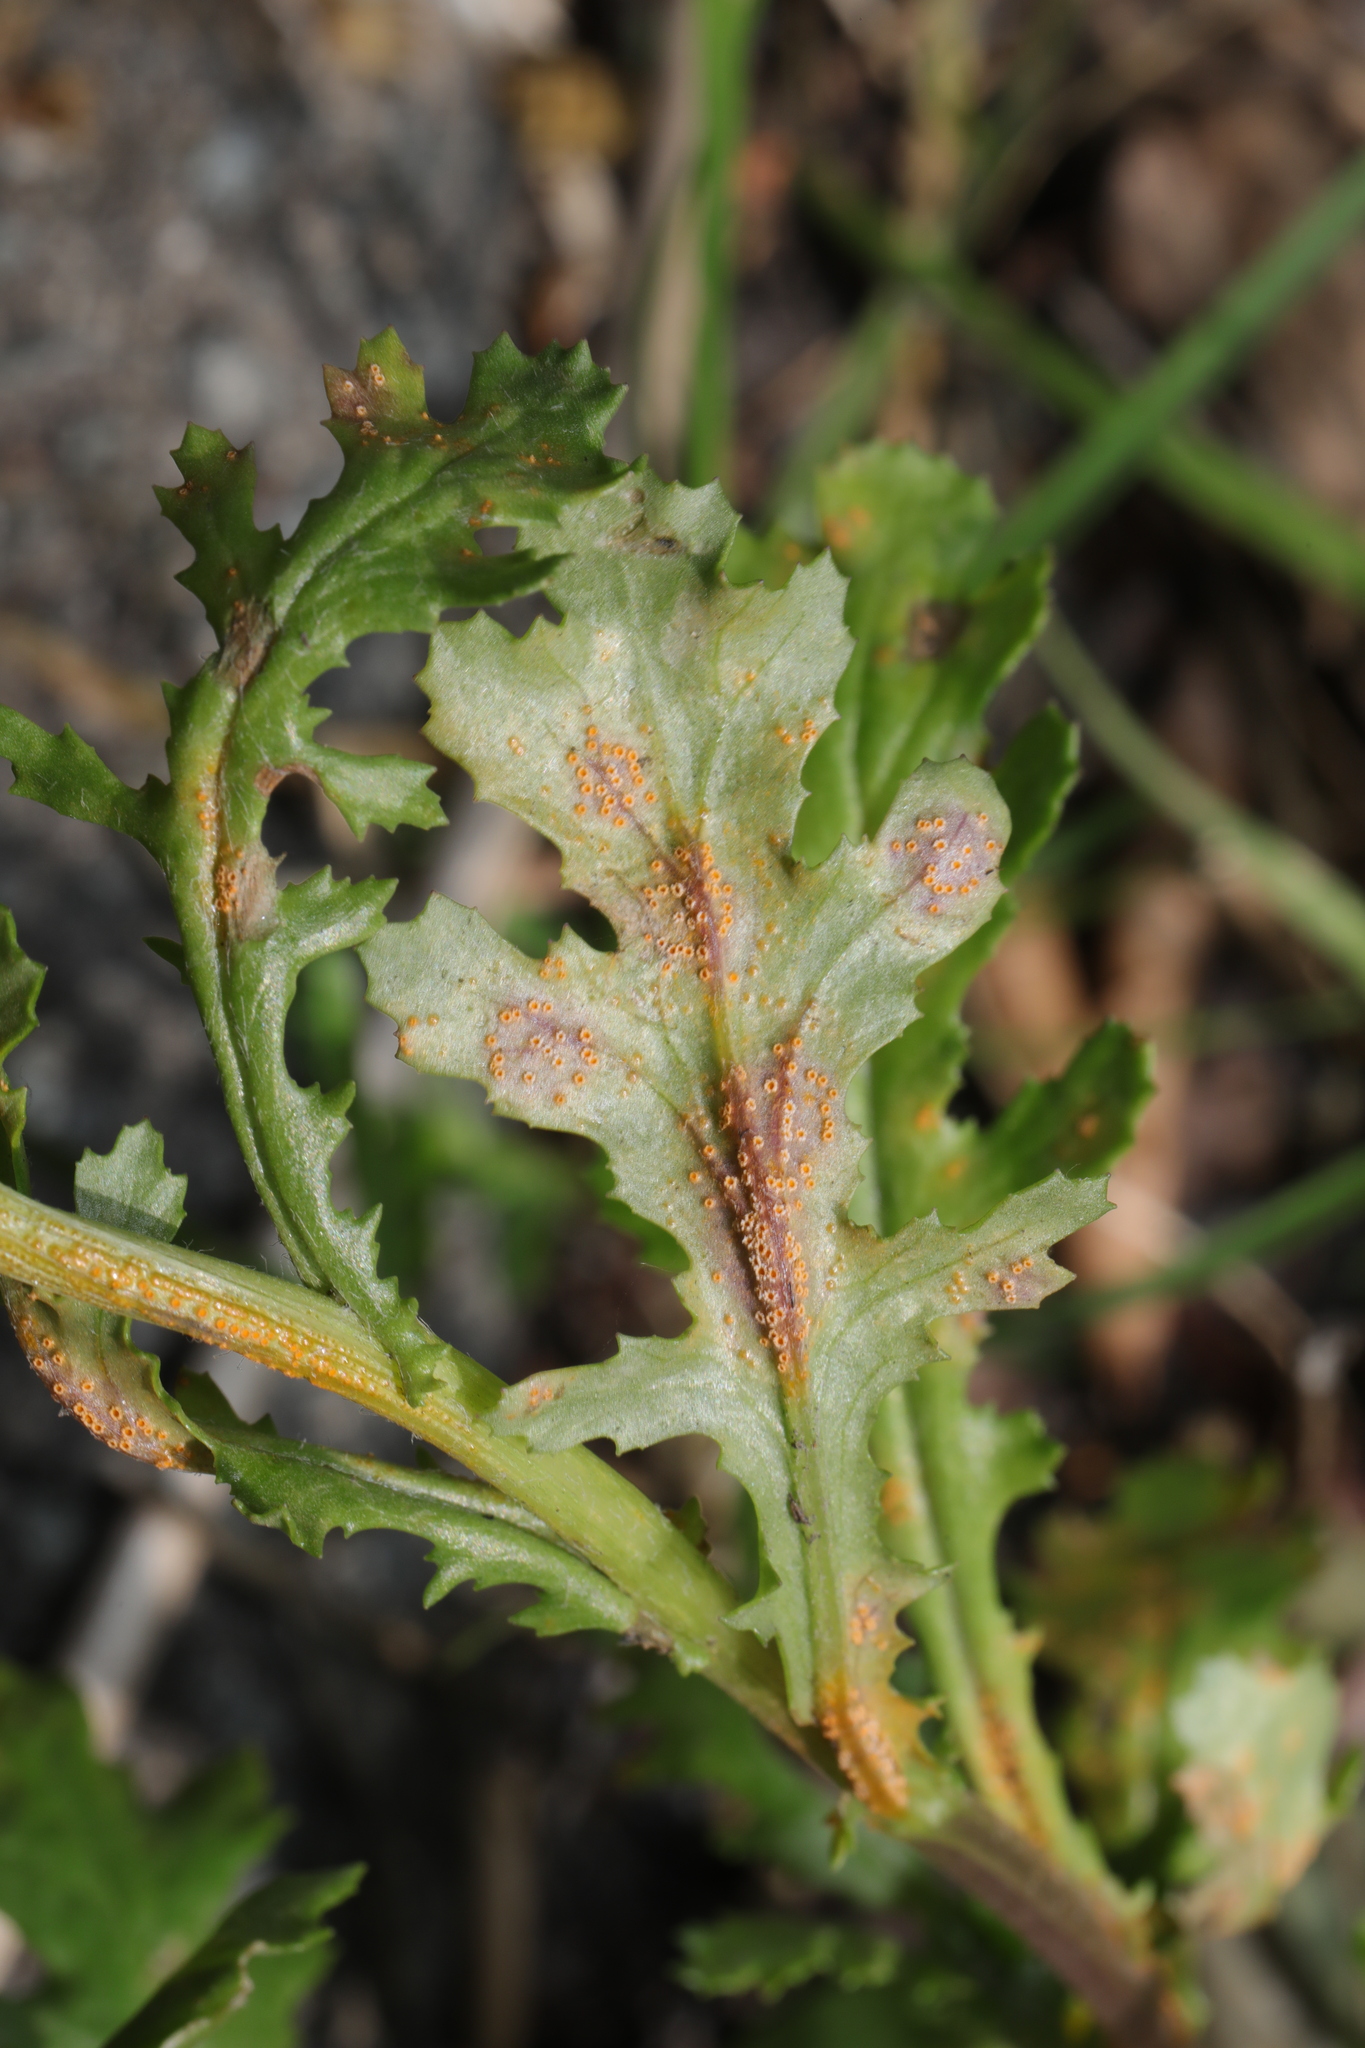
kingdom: Fungi
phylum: Basidiomycota
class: Pucciniomycetes
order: Pucciniales
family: Pucciniaceae
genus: Puccinia
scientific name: Puccinia lagenophorae
